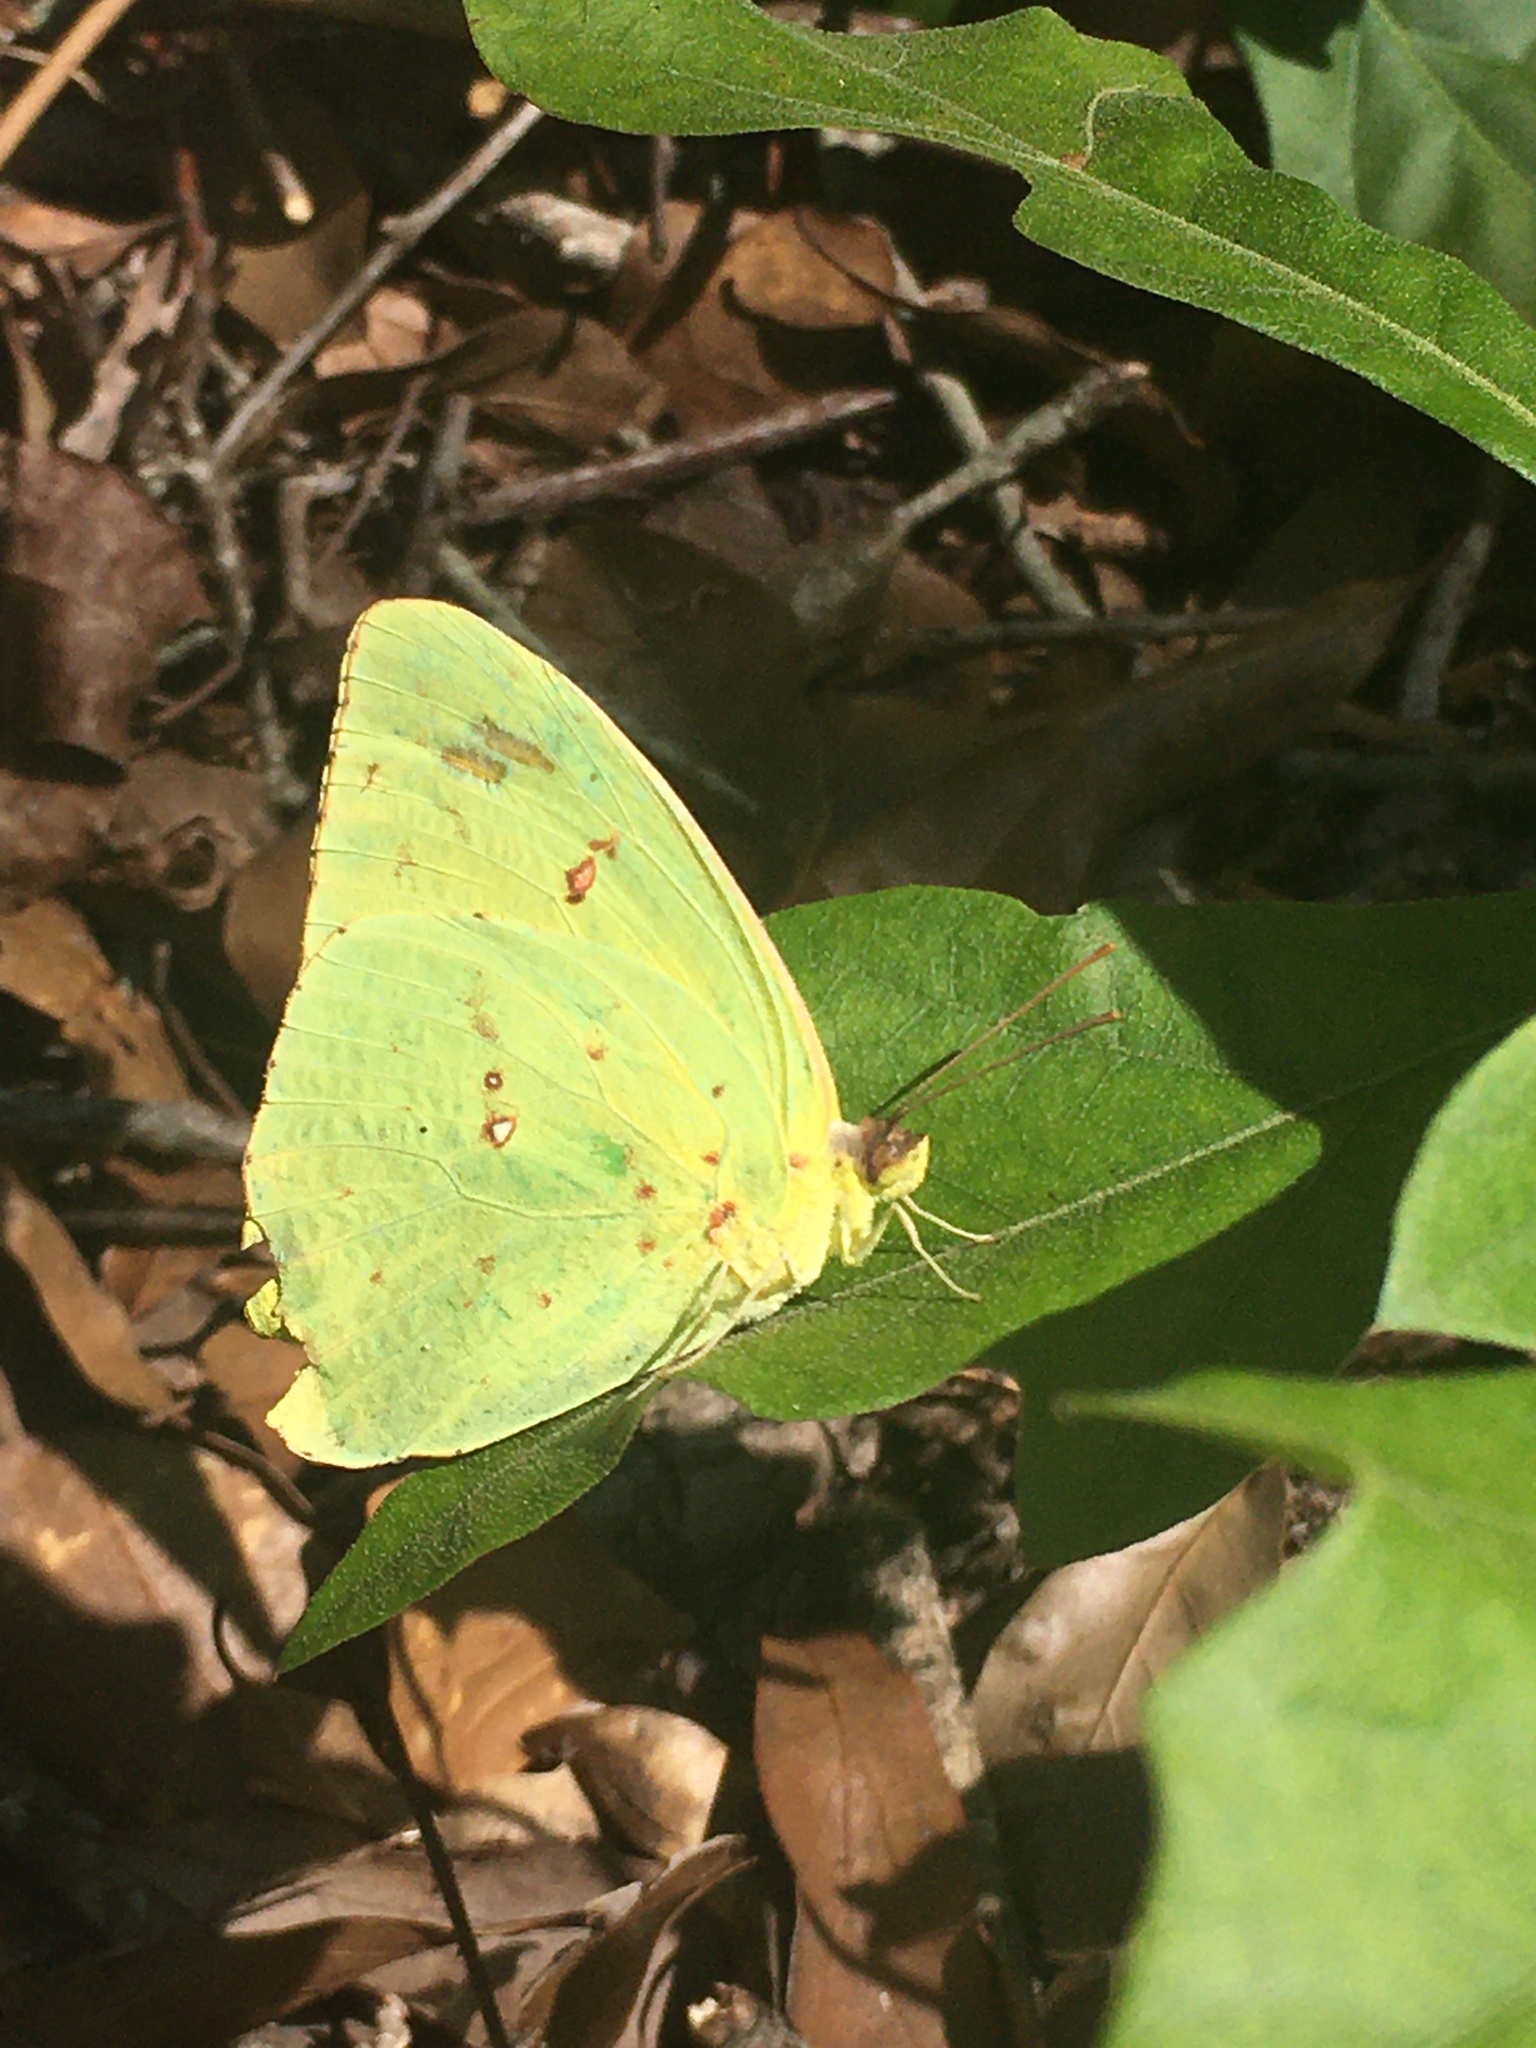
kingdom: Animalia
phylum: Arthropoda
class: Insecta
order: Lepidoptera
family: Pieridae
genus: Phoebis
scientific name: Phoebis sennae
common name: Cloudless sulphur
